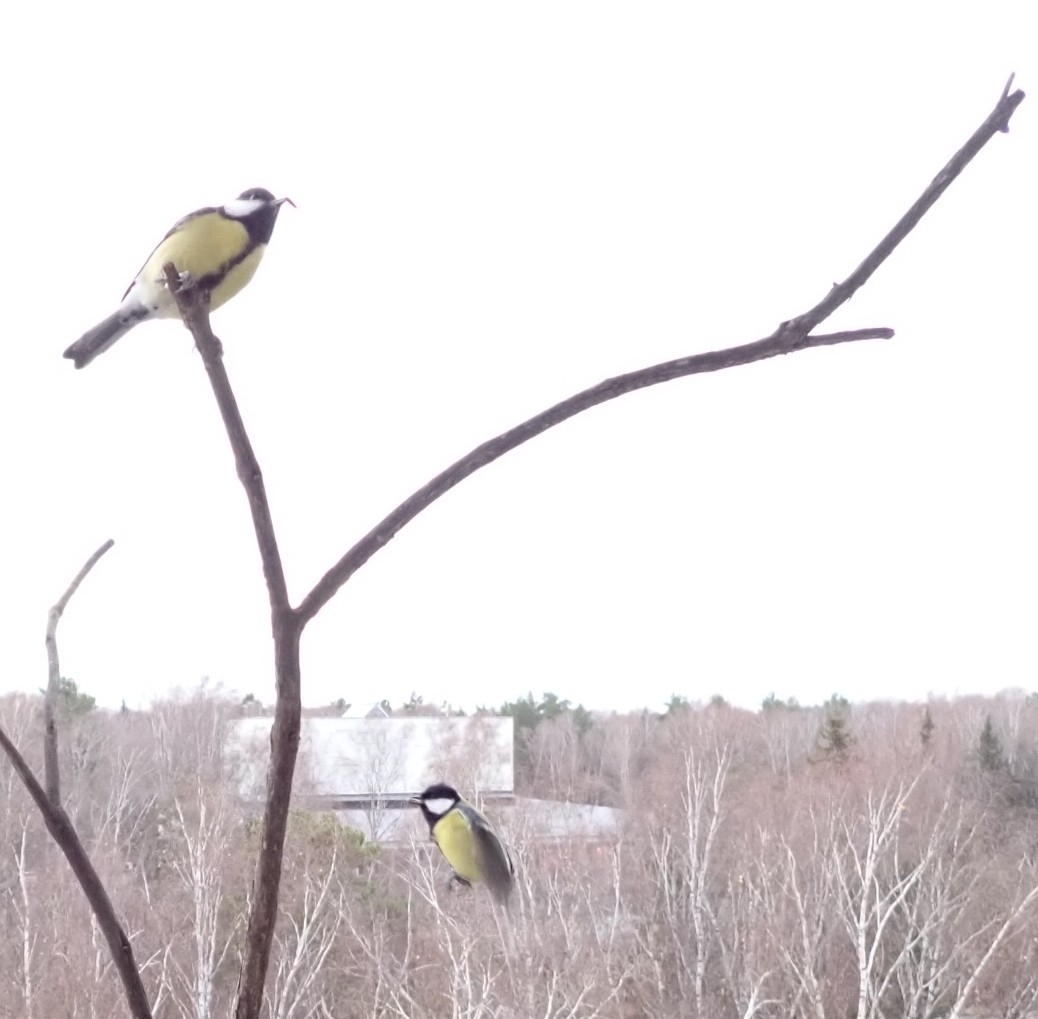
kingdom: Animalia
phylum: Chordata
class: Aves
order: Passeriformes
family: Paridae
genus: Parus
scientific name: Parus major
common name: Great tit
